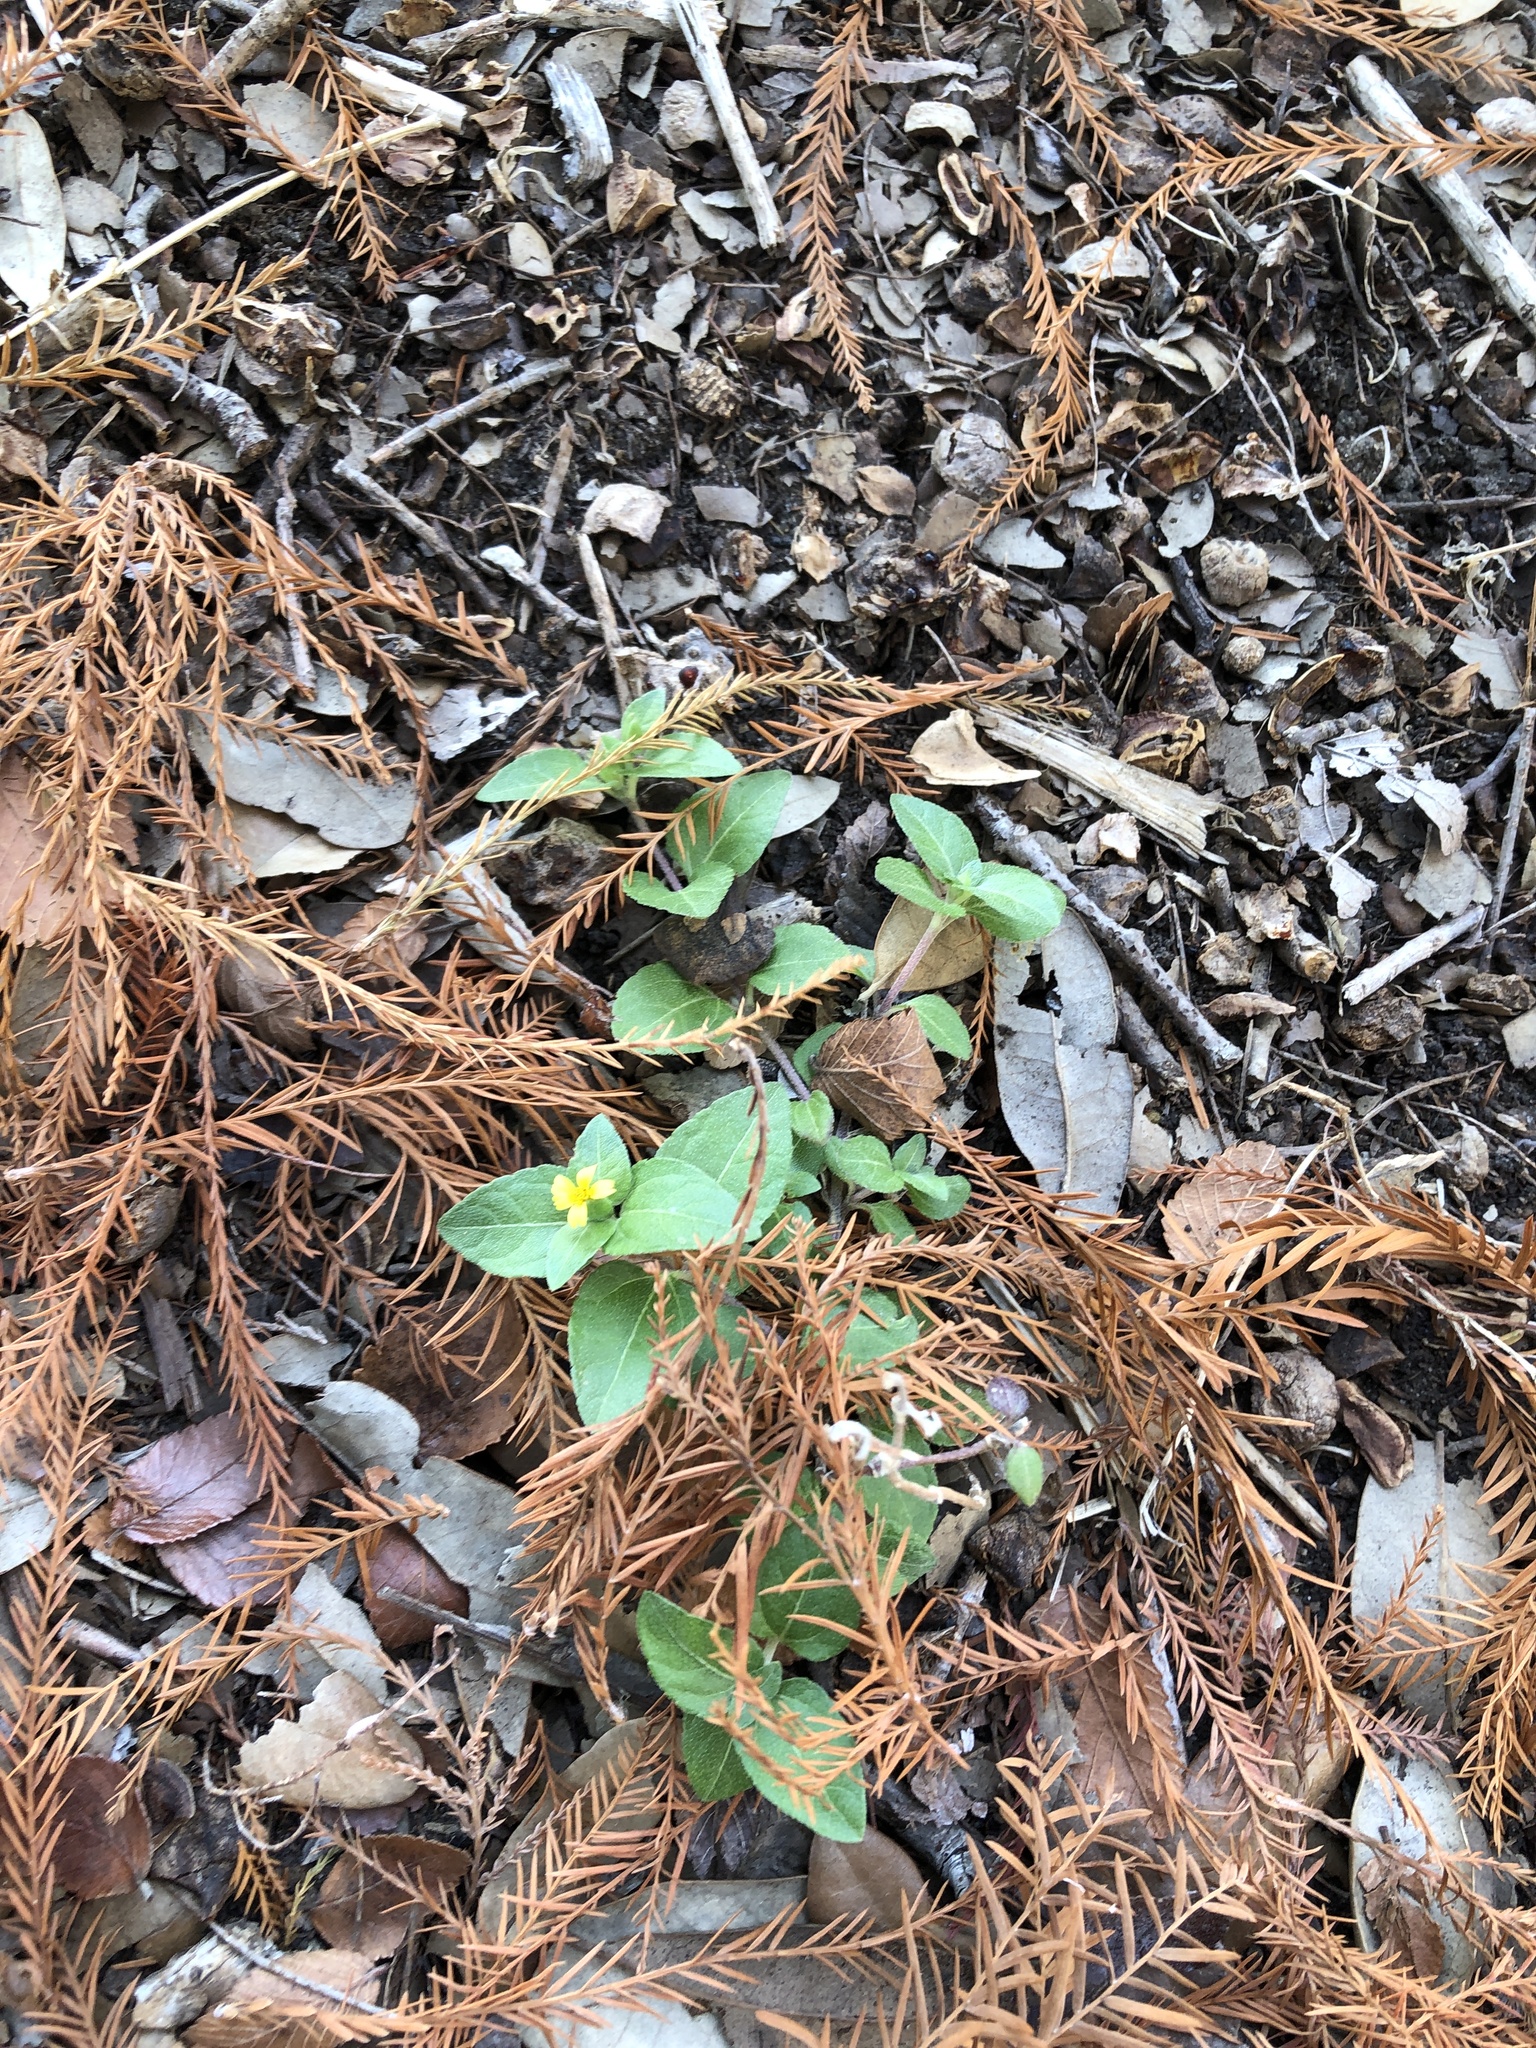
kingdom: Plantae
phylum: Tracheophyta
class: Magnoliopsida
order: Asterales
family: Asteraceae
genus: Calyptocarpus
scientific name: Calyptocarpus vialis
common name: Straggler daisy
